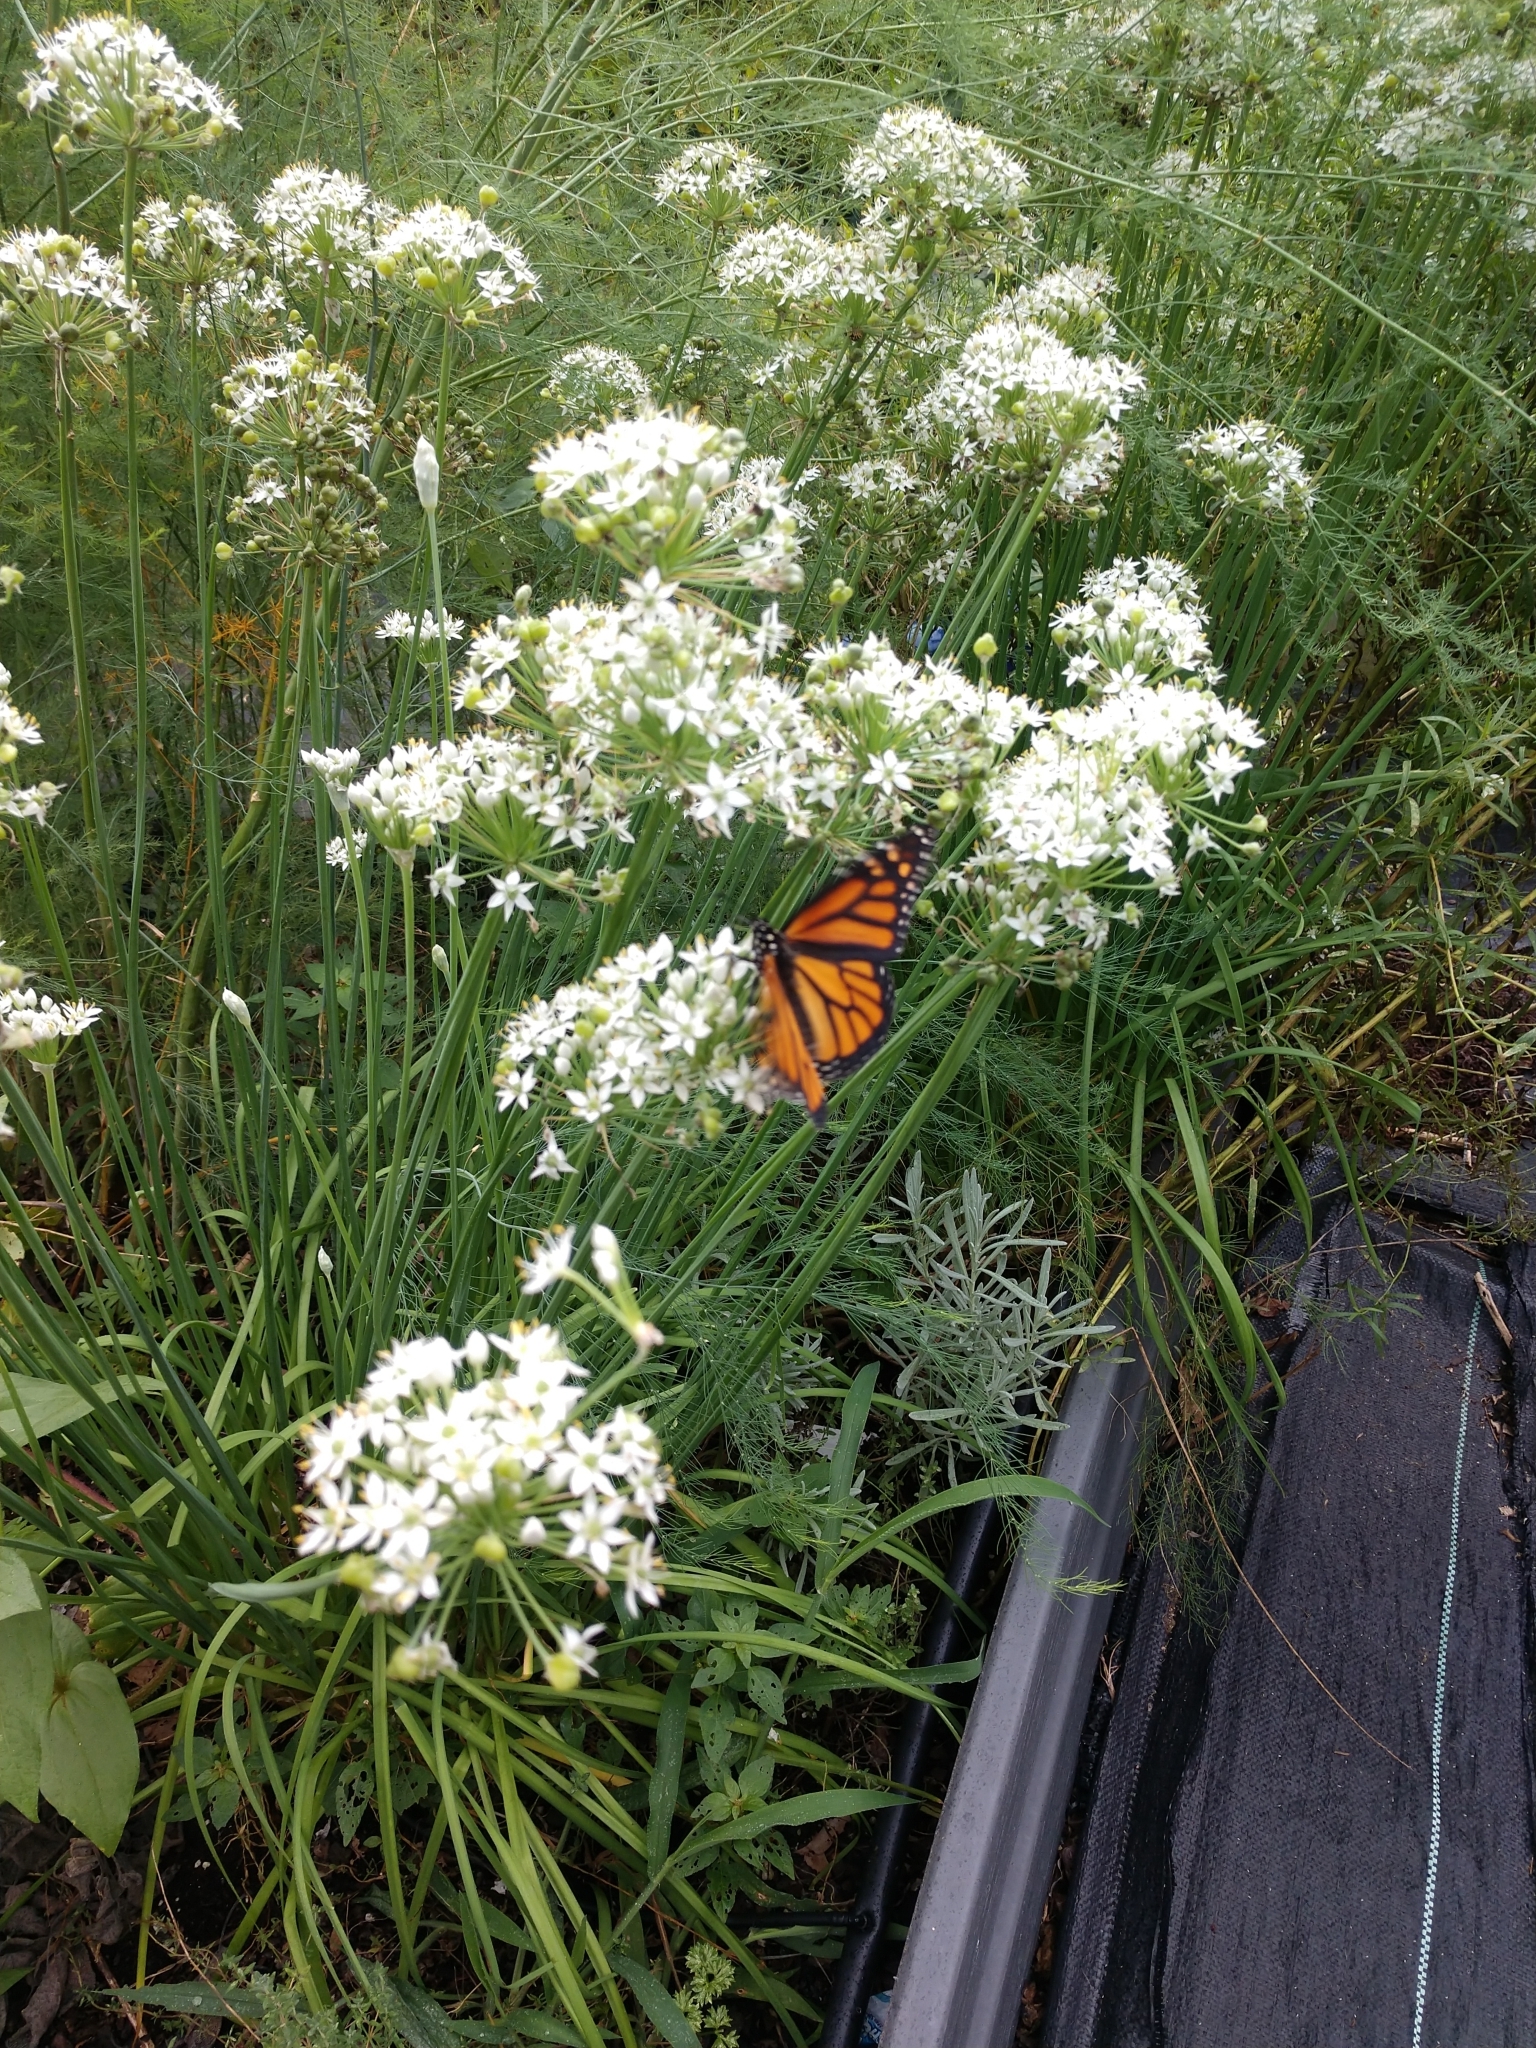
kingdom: Animalia
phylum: Arthropoda
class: Insecta
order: Lepidoptera
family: Nymphalidae
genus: Danaus
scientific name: Danaus plexippus
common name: Monarch
